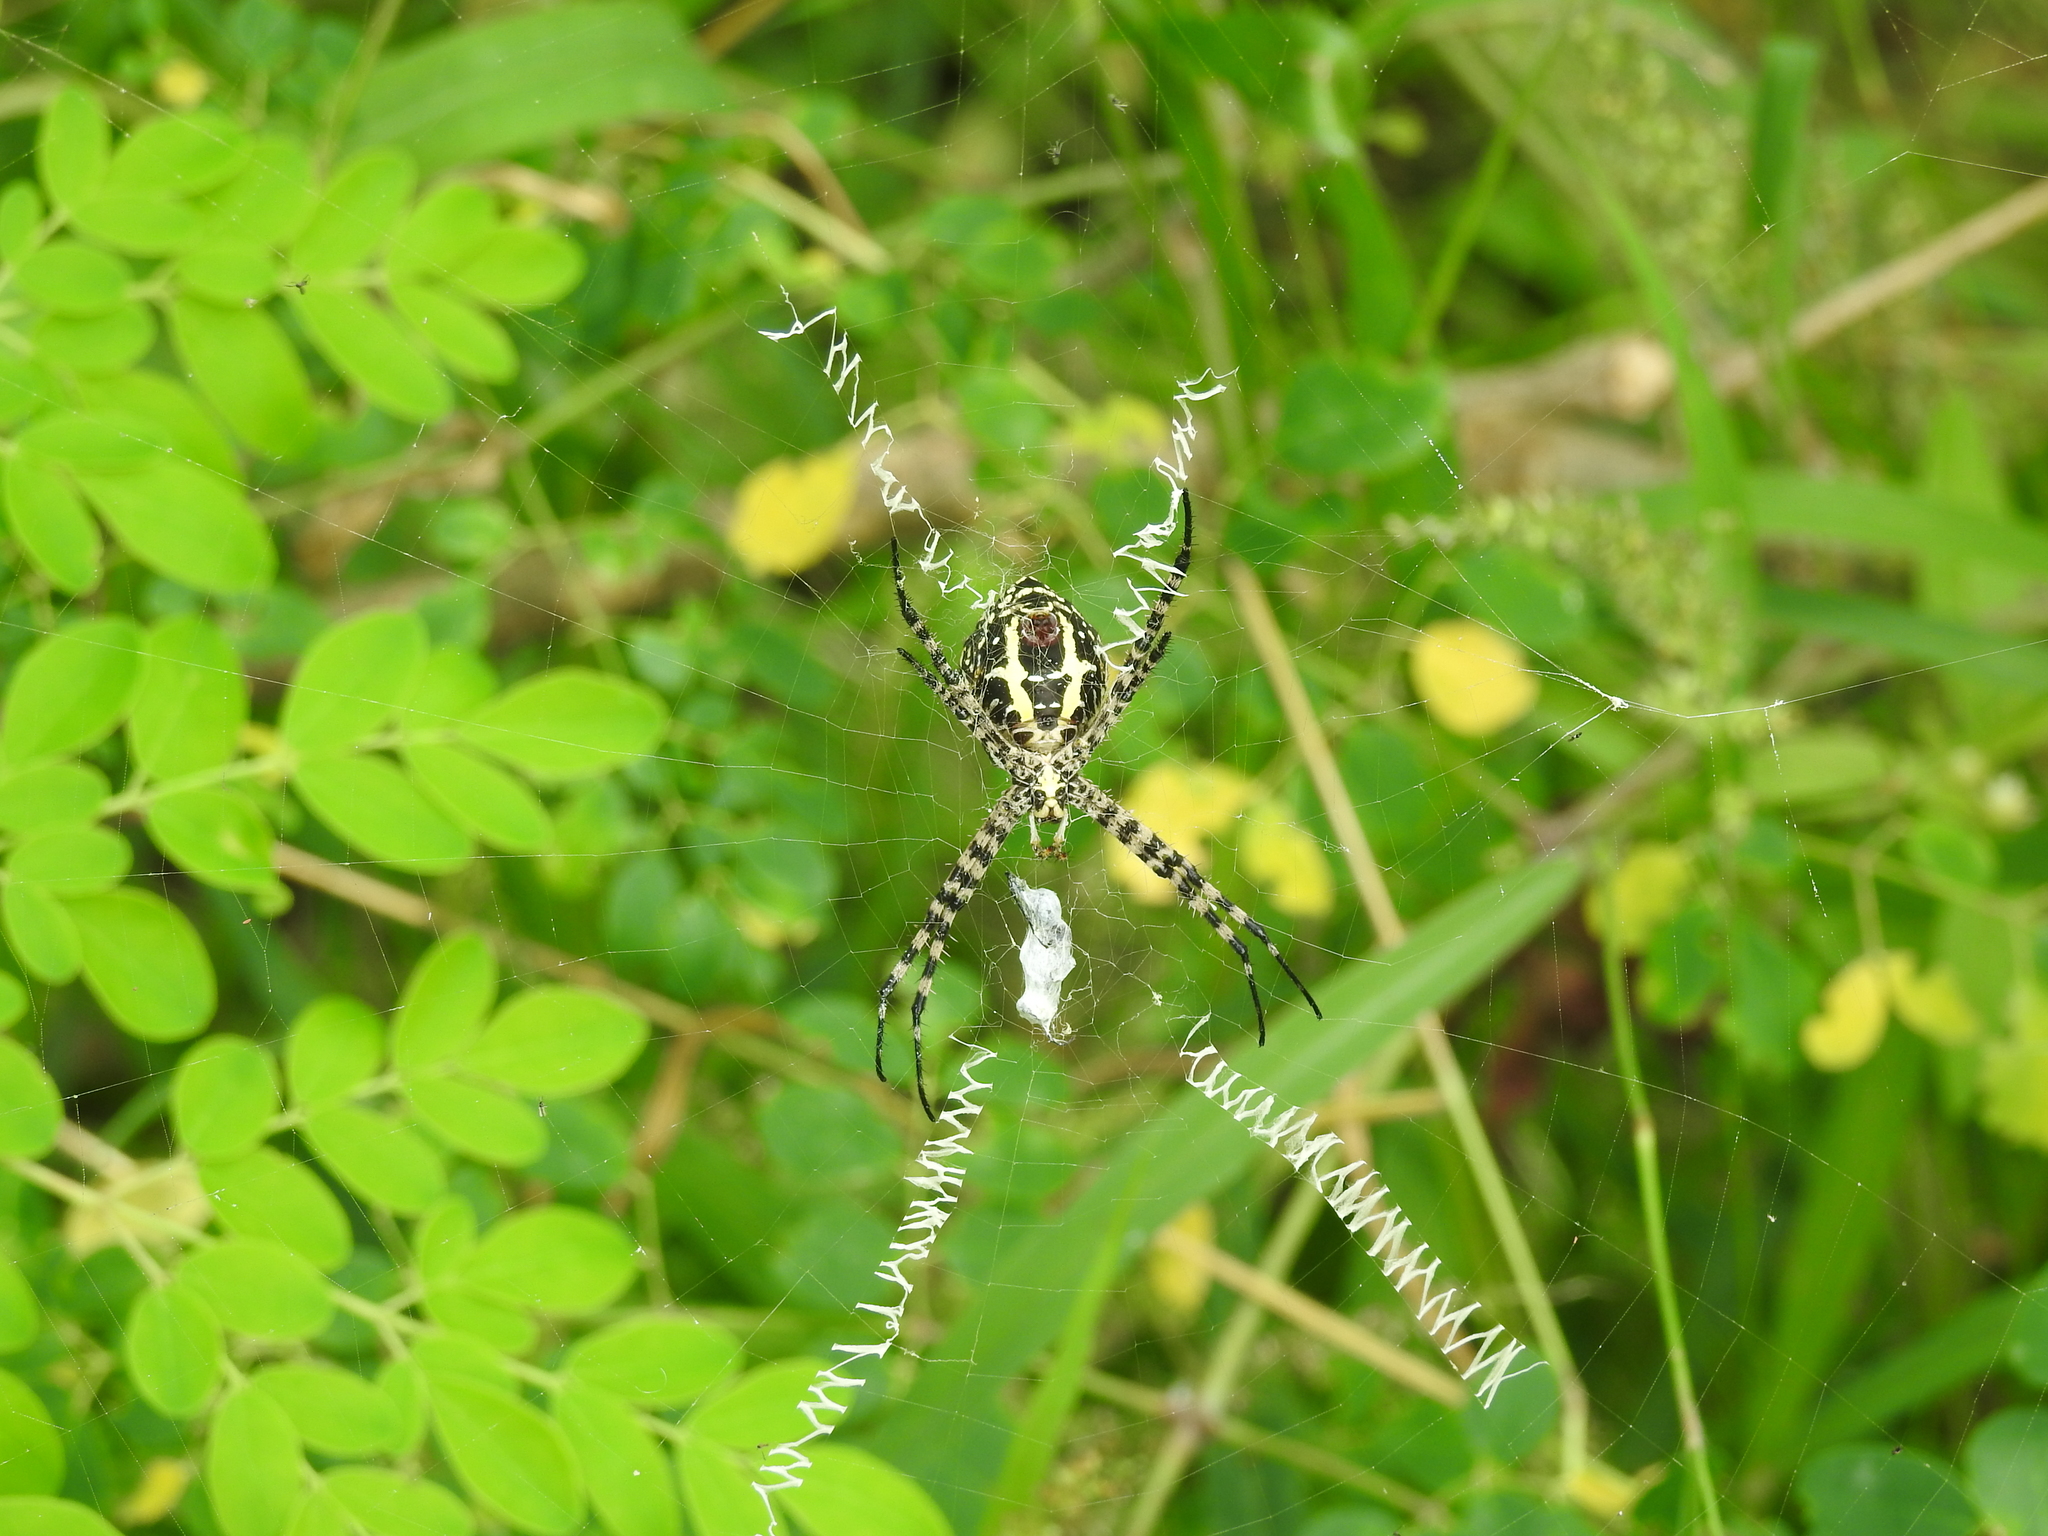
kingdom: Animalia
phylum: Arthropoda
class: Arachnida
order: Araneae
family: Araneidae
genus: Argiope
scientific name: Argiope aemula
